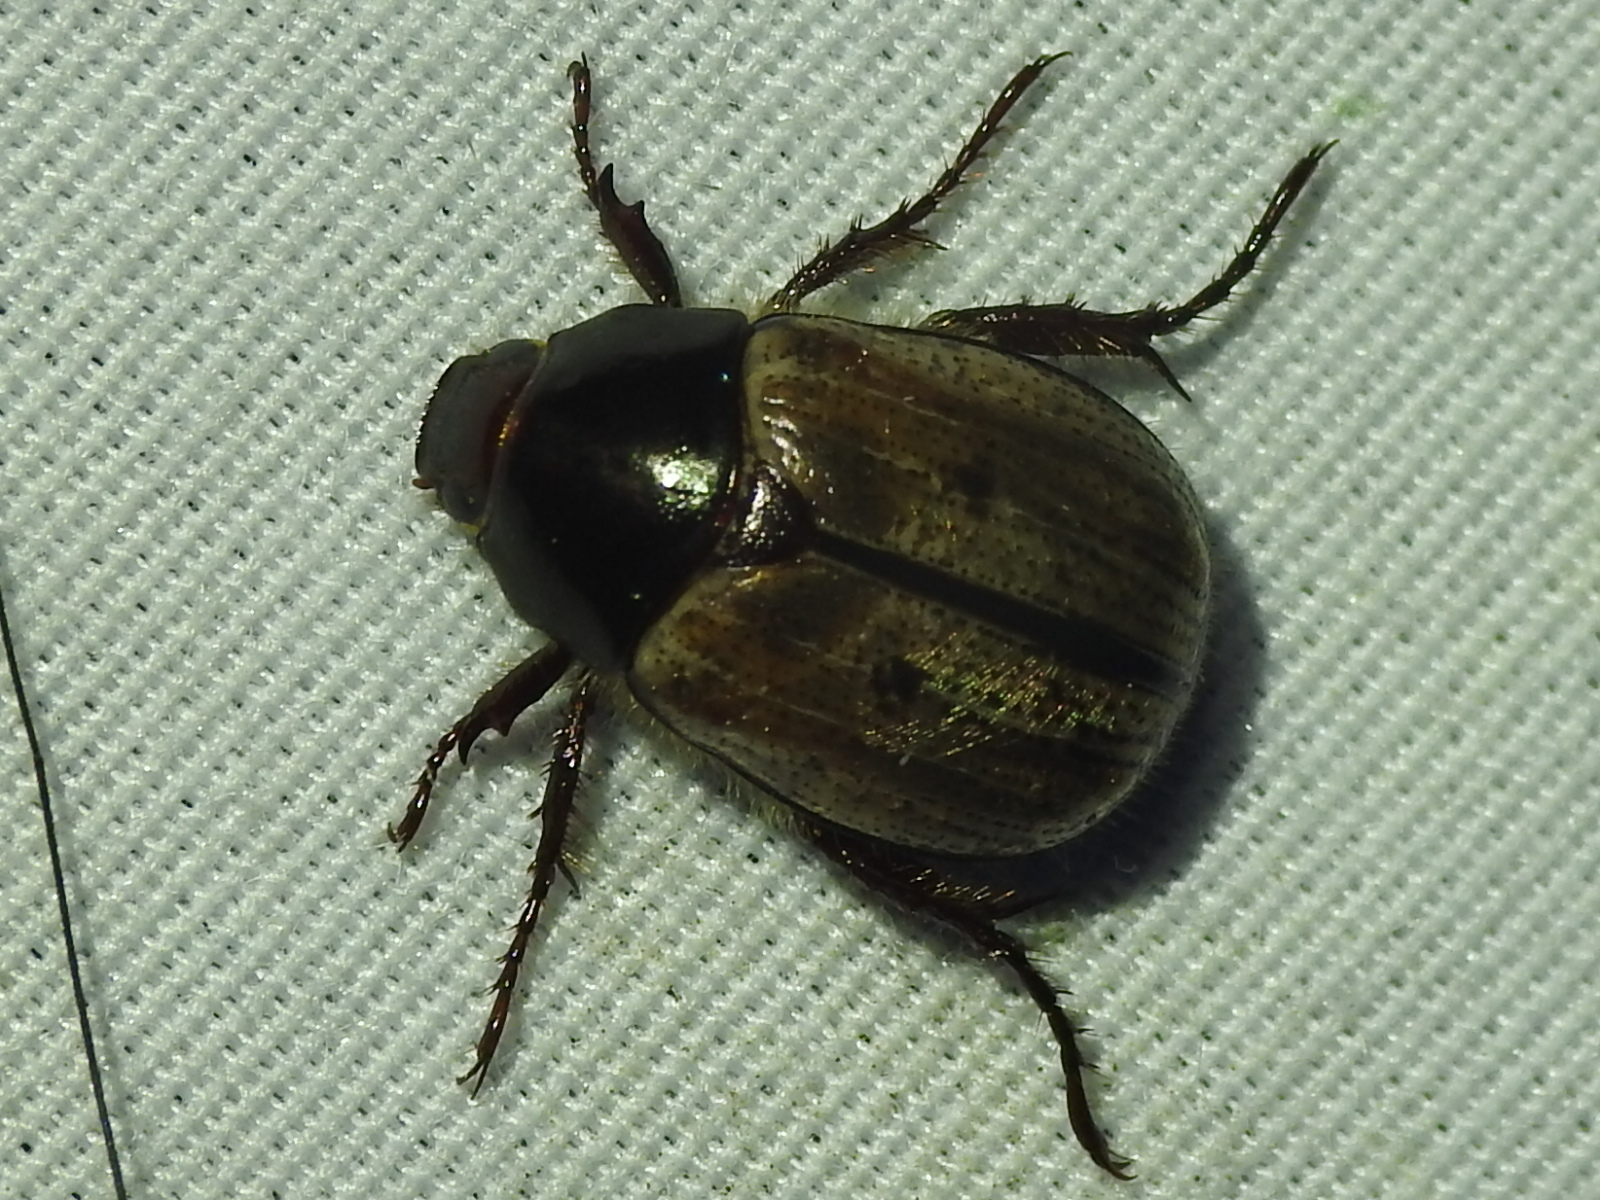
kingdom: Animalia
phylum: Arthropoda
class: Insecta
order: Coleoptera
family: Scarabaeidae
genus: Paranomala
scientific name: Paranomala binotata
